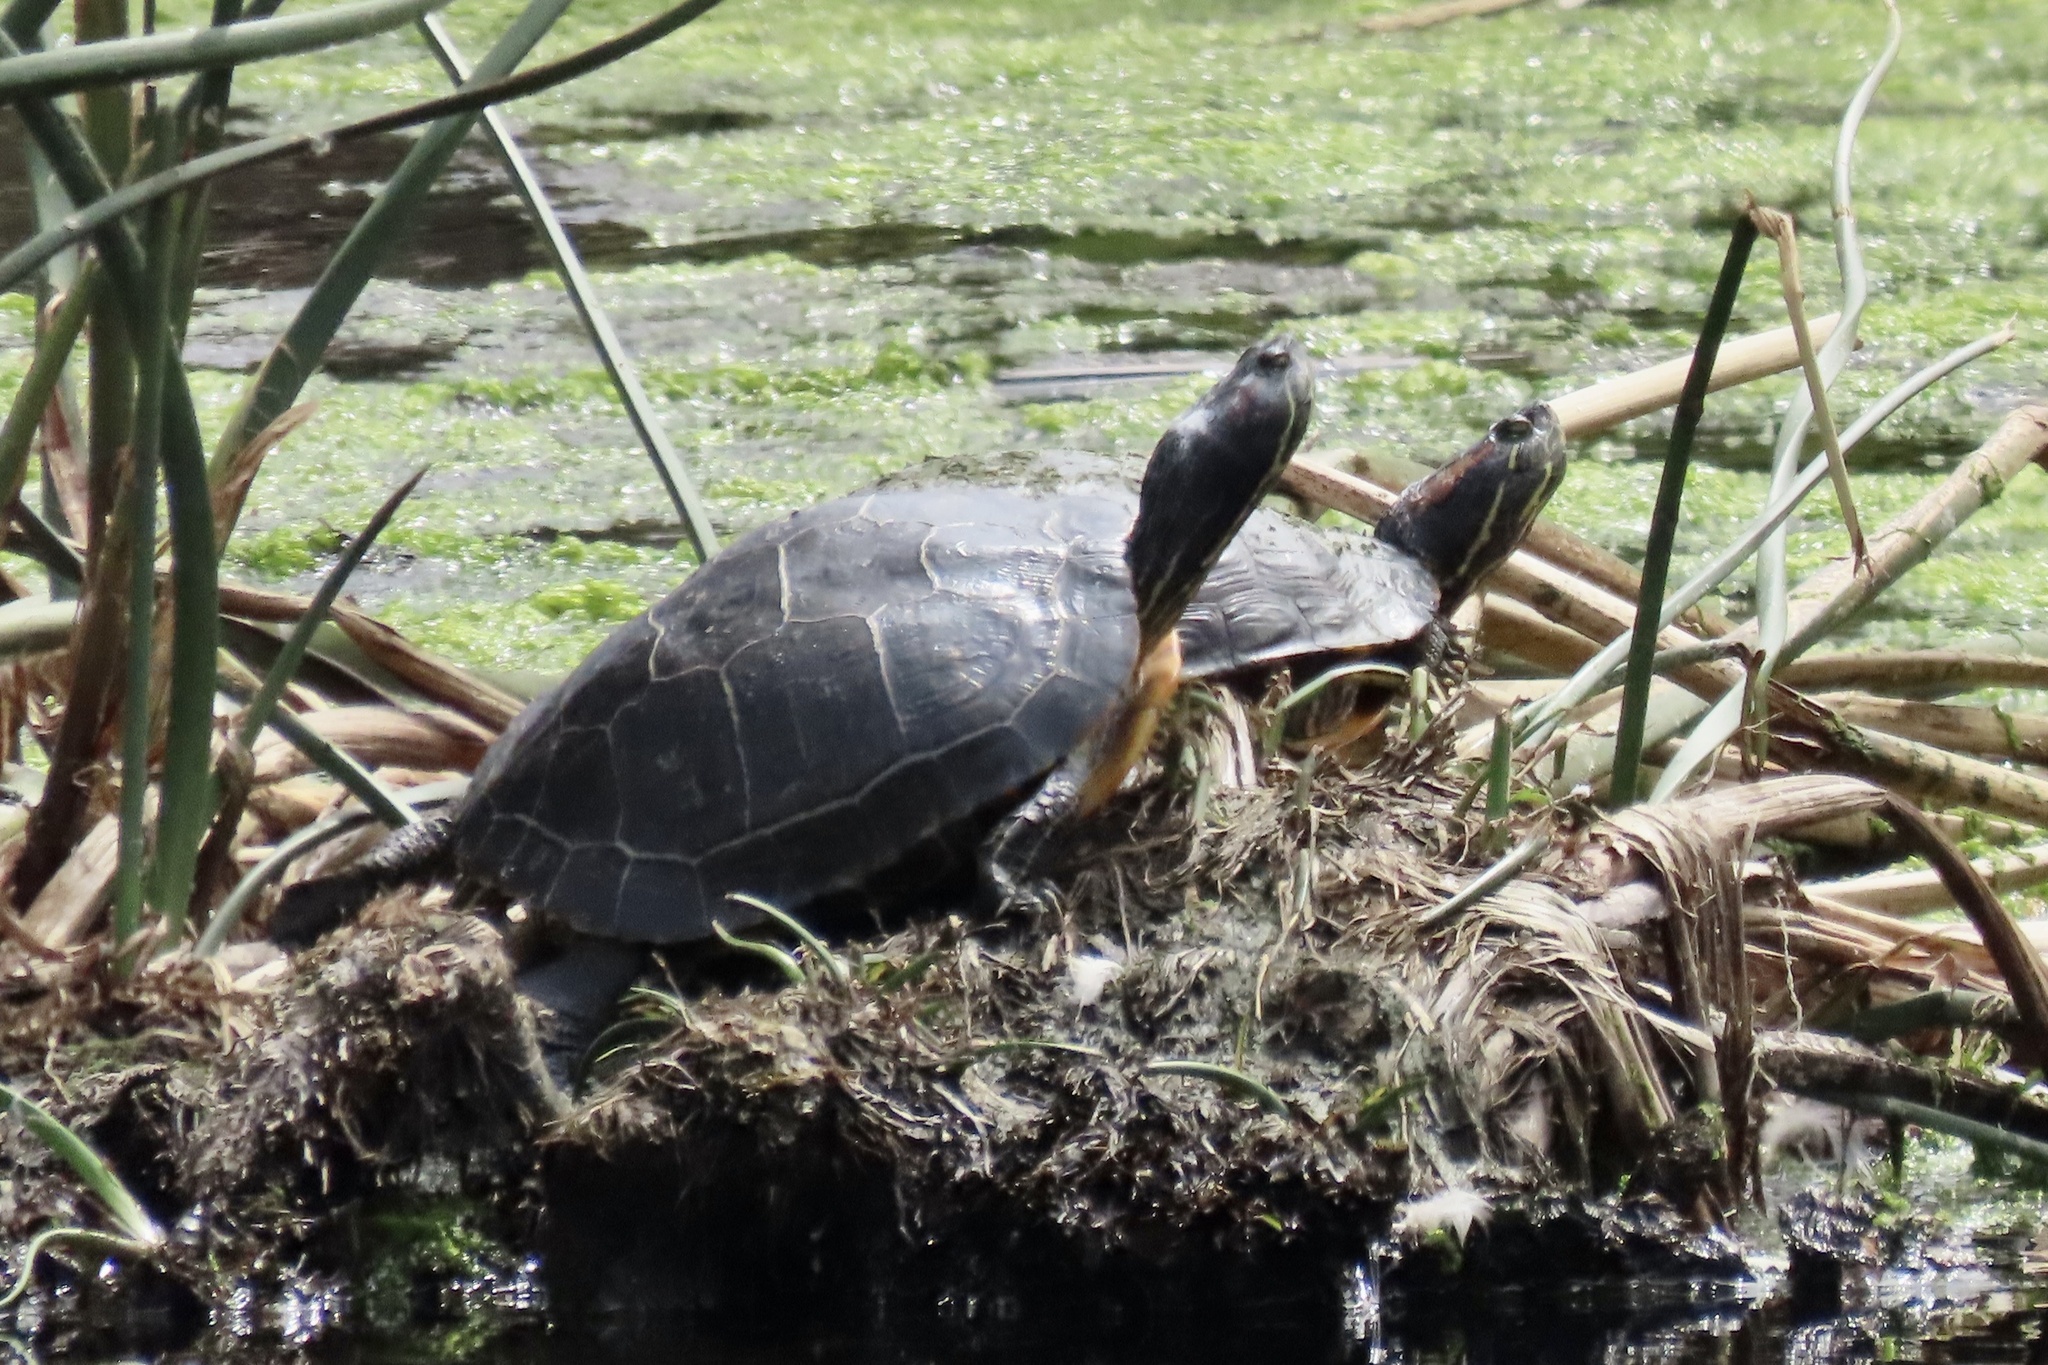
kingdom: Animalia
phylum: Chordata
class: Testudines
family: Emydidae
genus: Trachemys
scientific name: Trachemys scripta
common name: Slider
